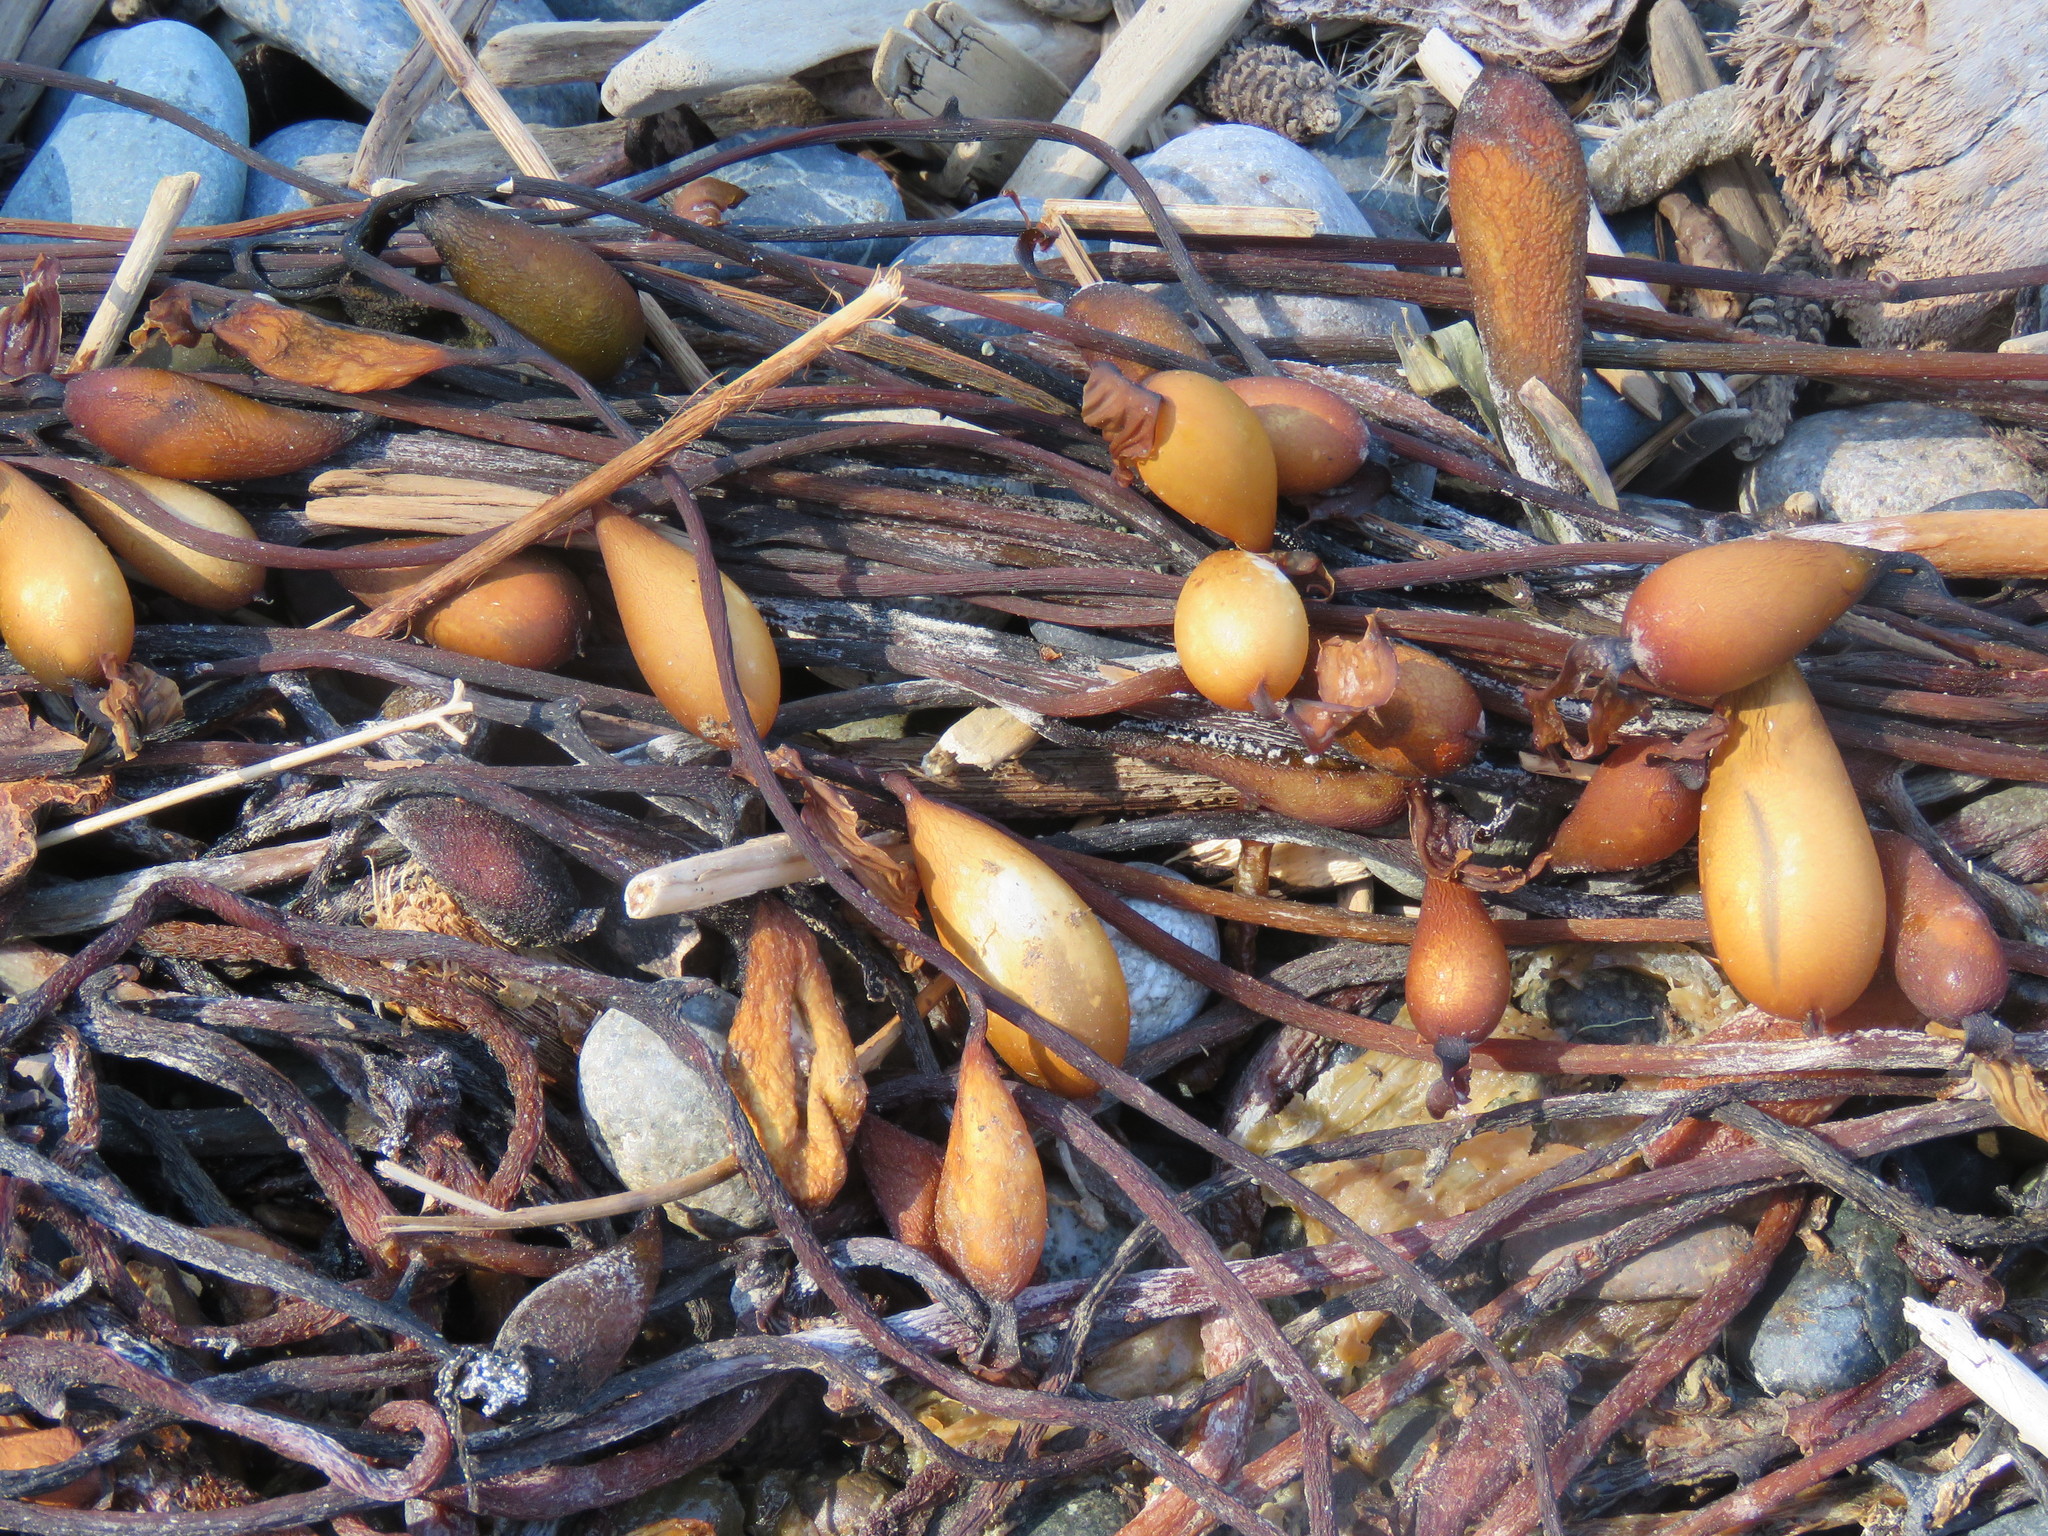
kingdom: Chromista
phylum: Ochrophyta
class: Phaeophyceae
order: Laminariales
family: Laminariaceae
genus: Macrocystis
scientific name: Macrocystis pyrifera
